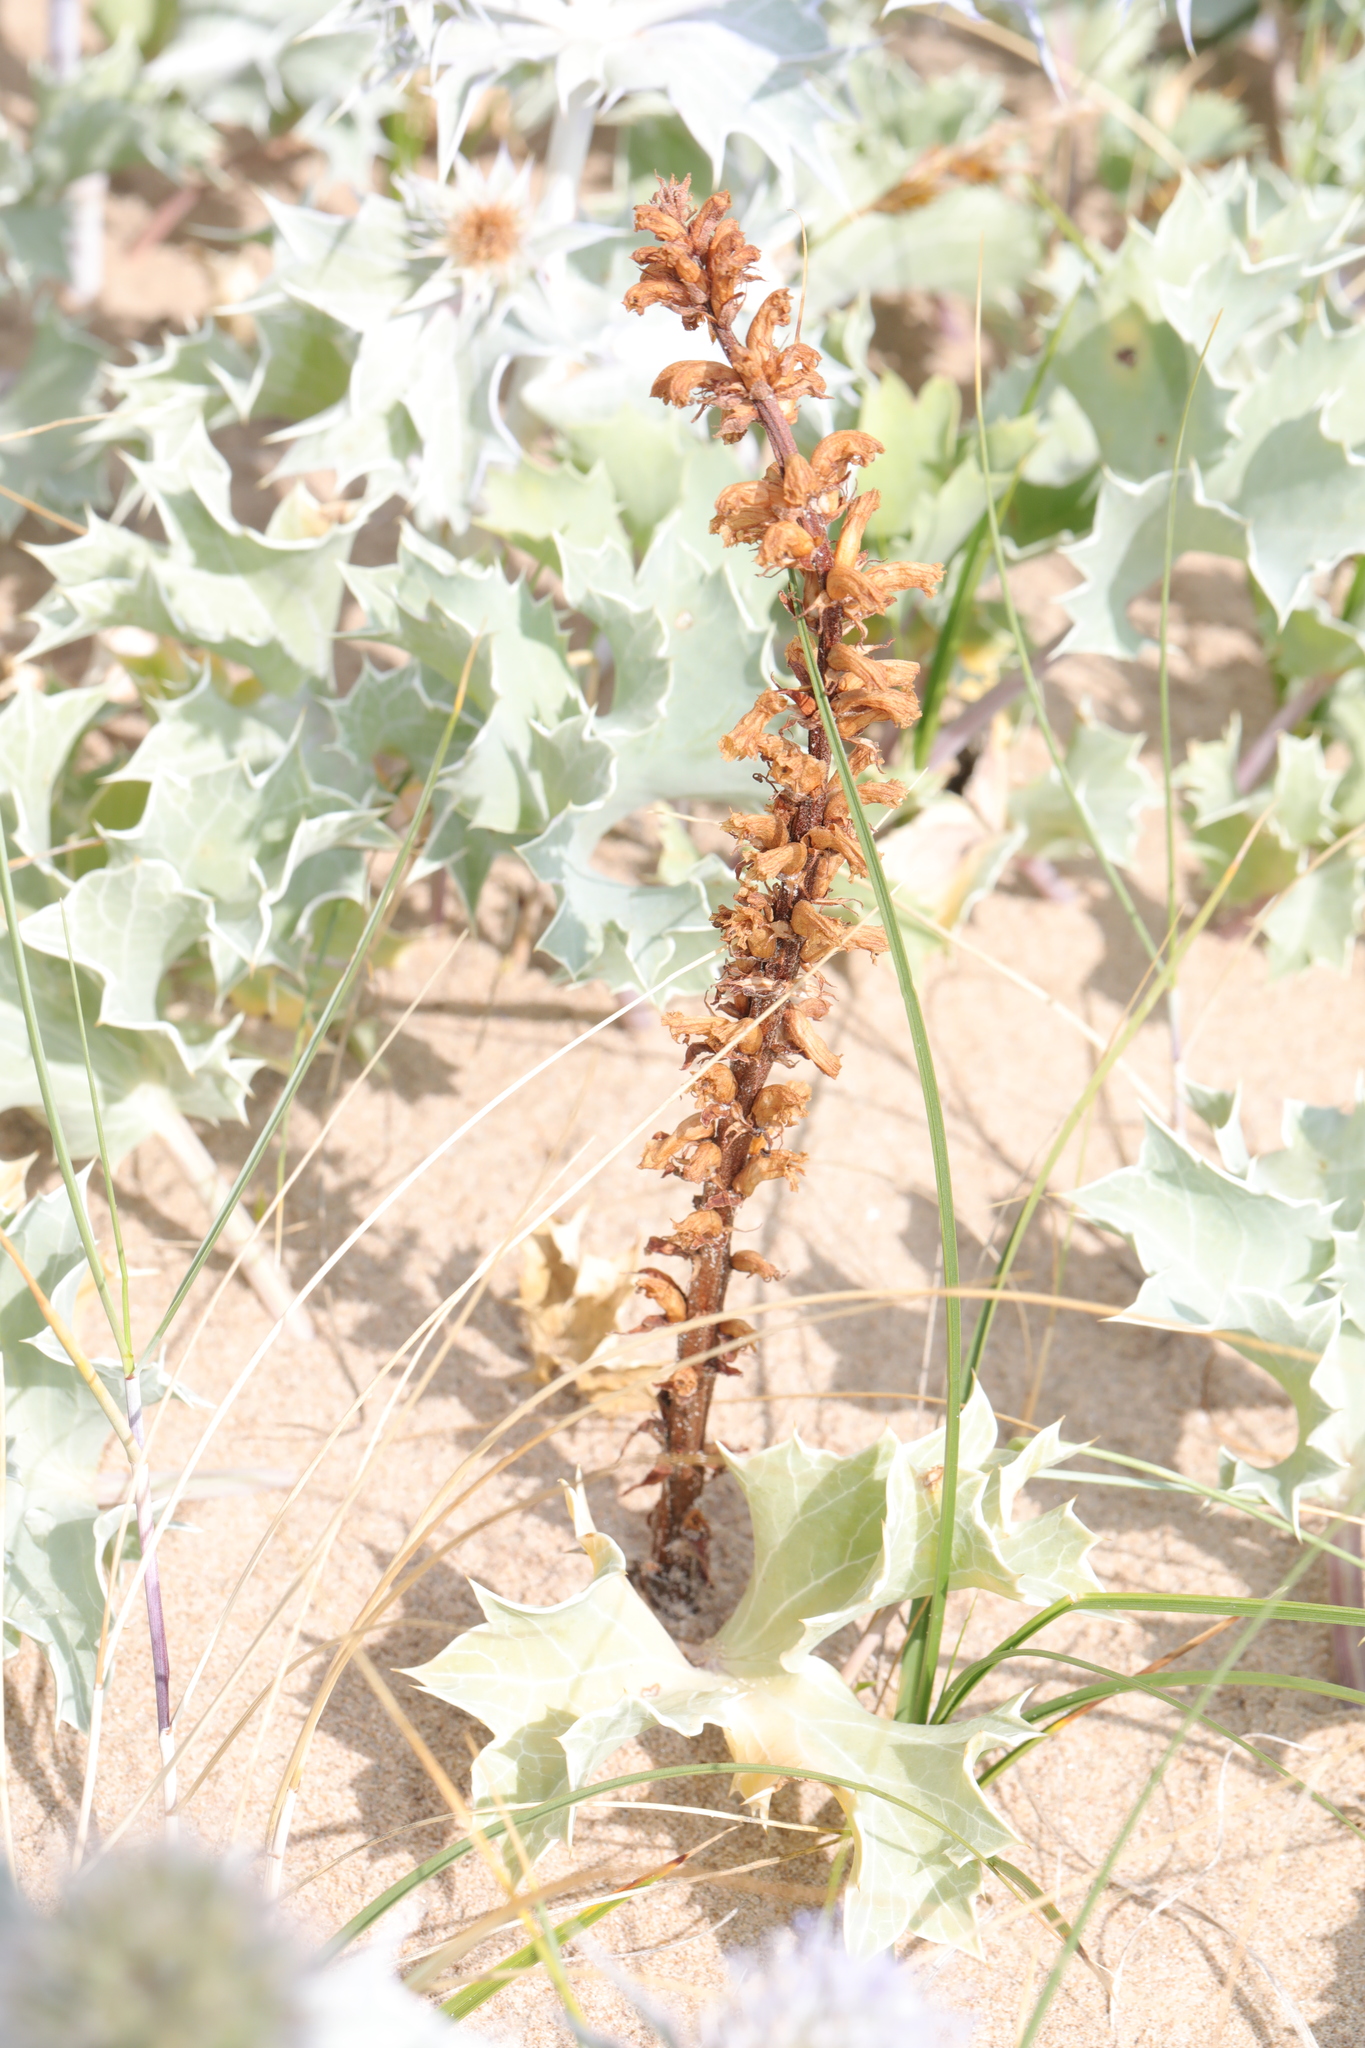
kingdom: Plantae
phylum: Tracheophyta
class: Magnoliopsida
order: Lamiales
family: Orobanchaceae
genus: Orobanche
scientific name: Orobanche minor
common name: Common broomrape
